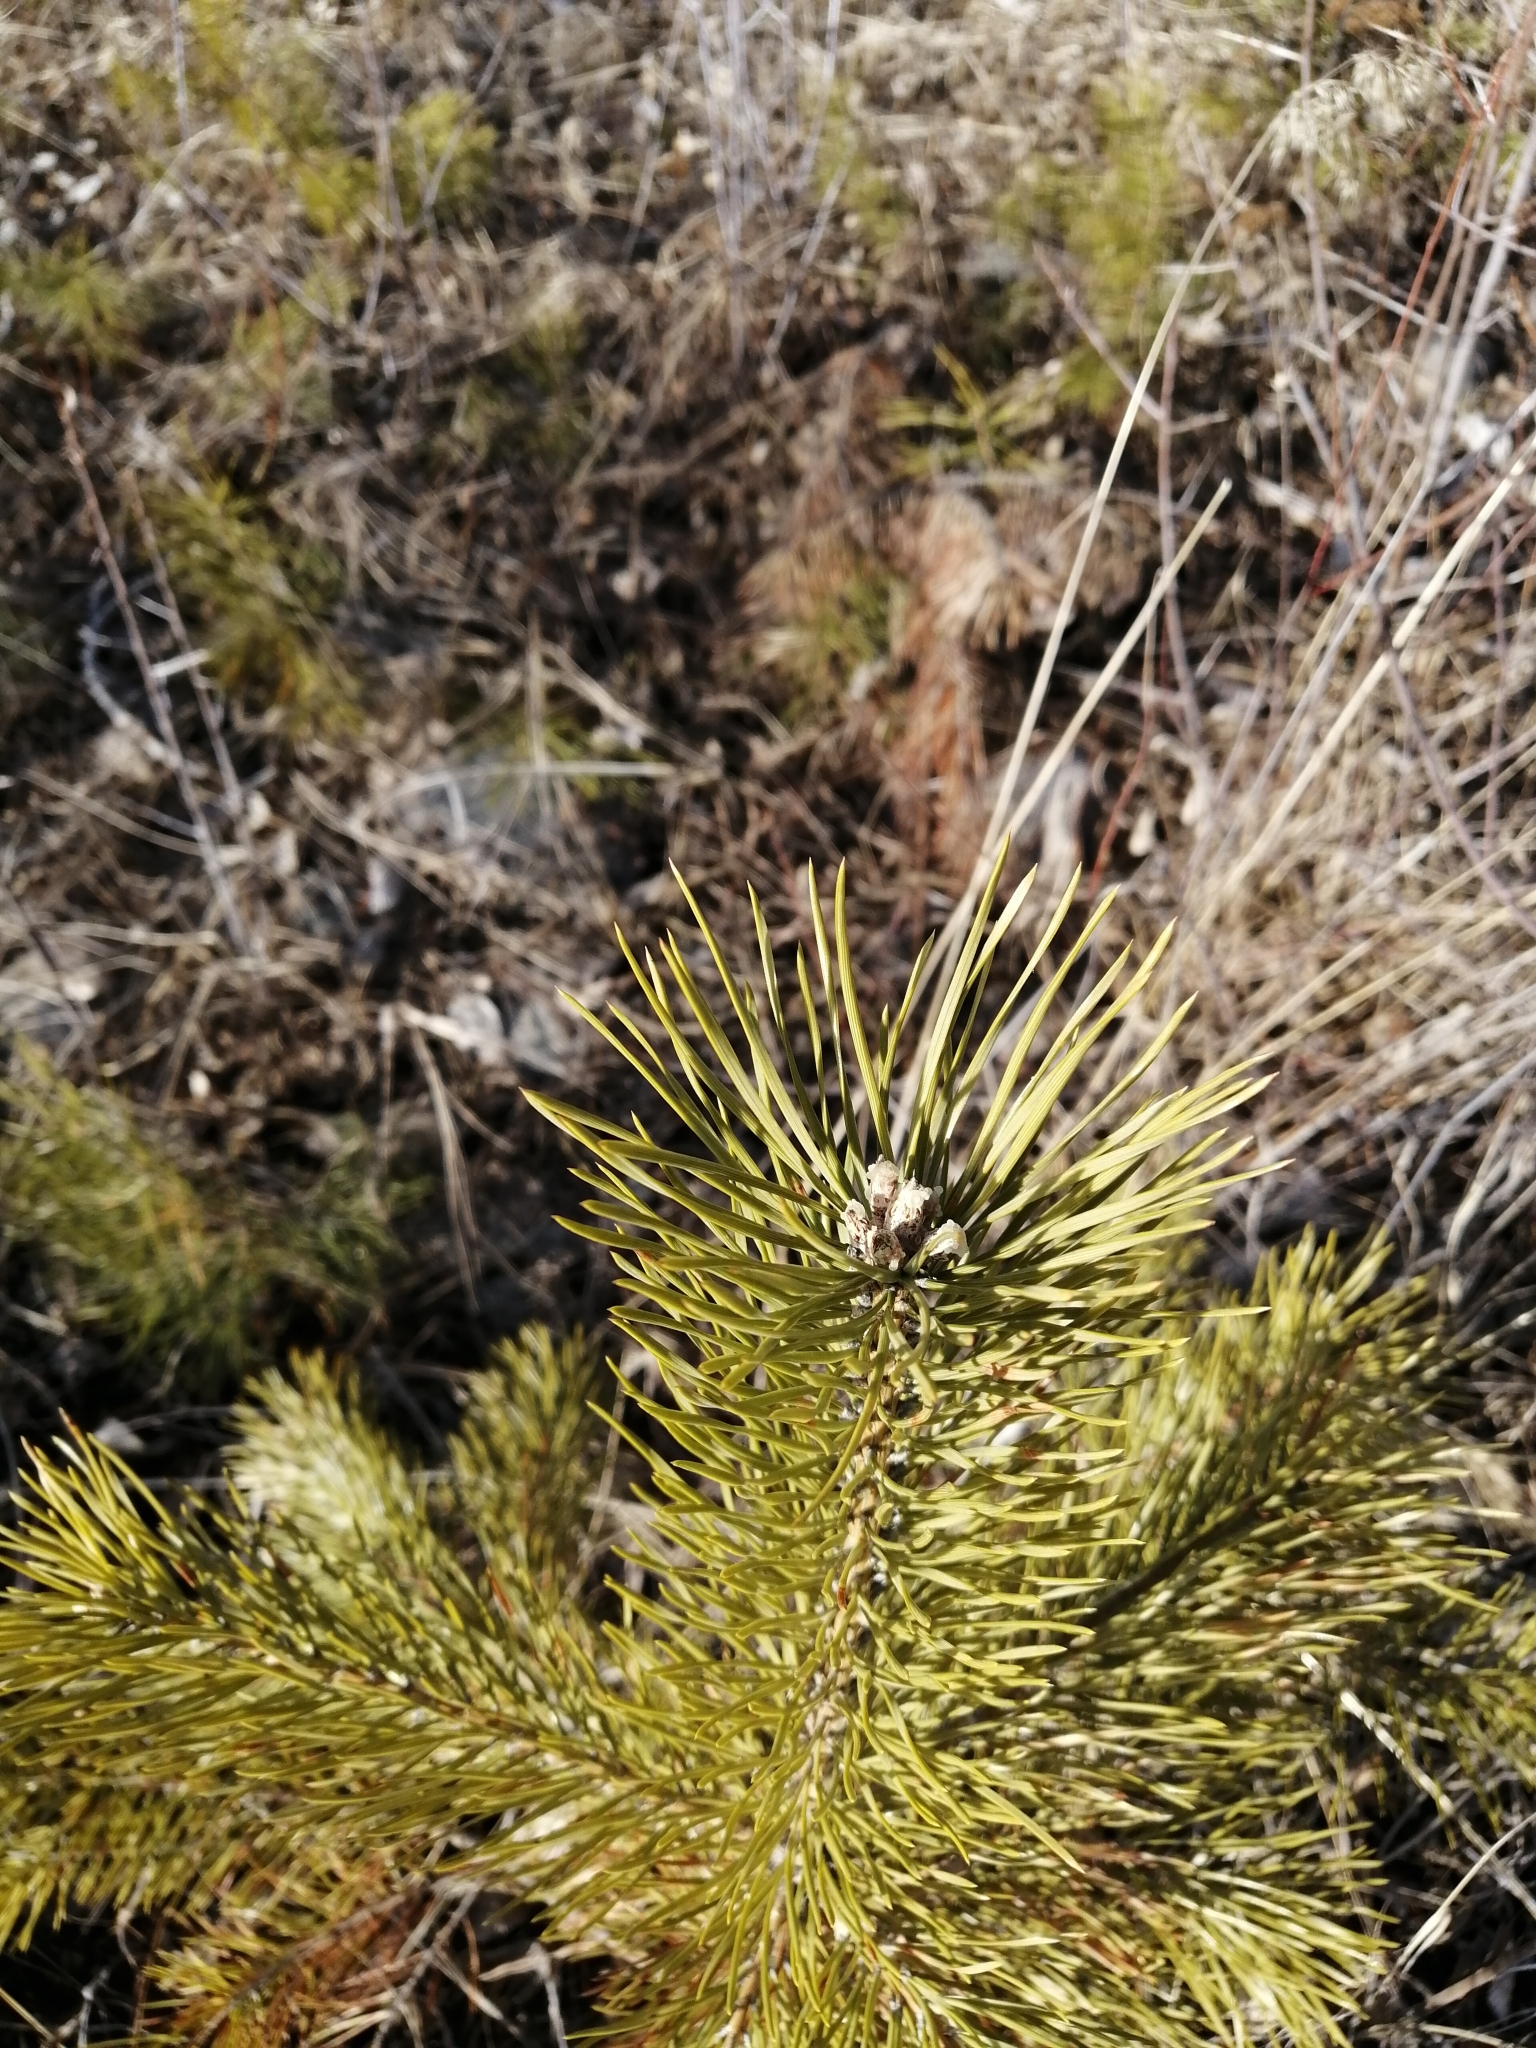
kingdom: Plantae
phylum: Tracheophyta
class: Pinopsida
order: Pinales
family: Pinaceae
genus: Pinus
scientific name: Pinus sylvestris
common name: Scots pine
